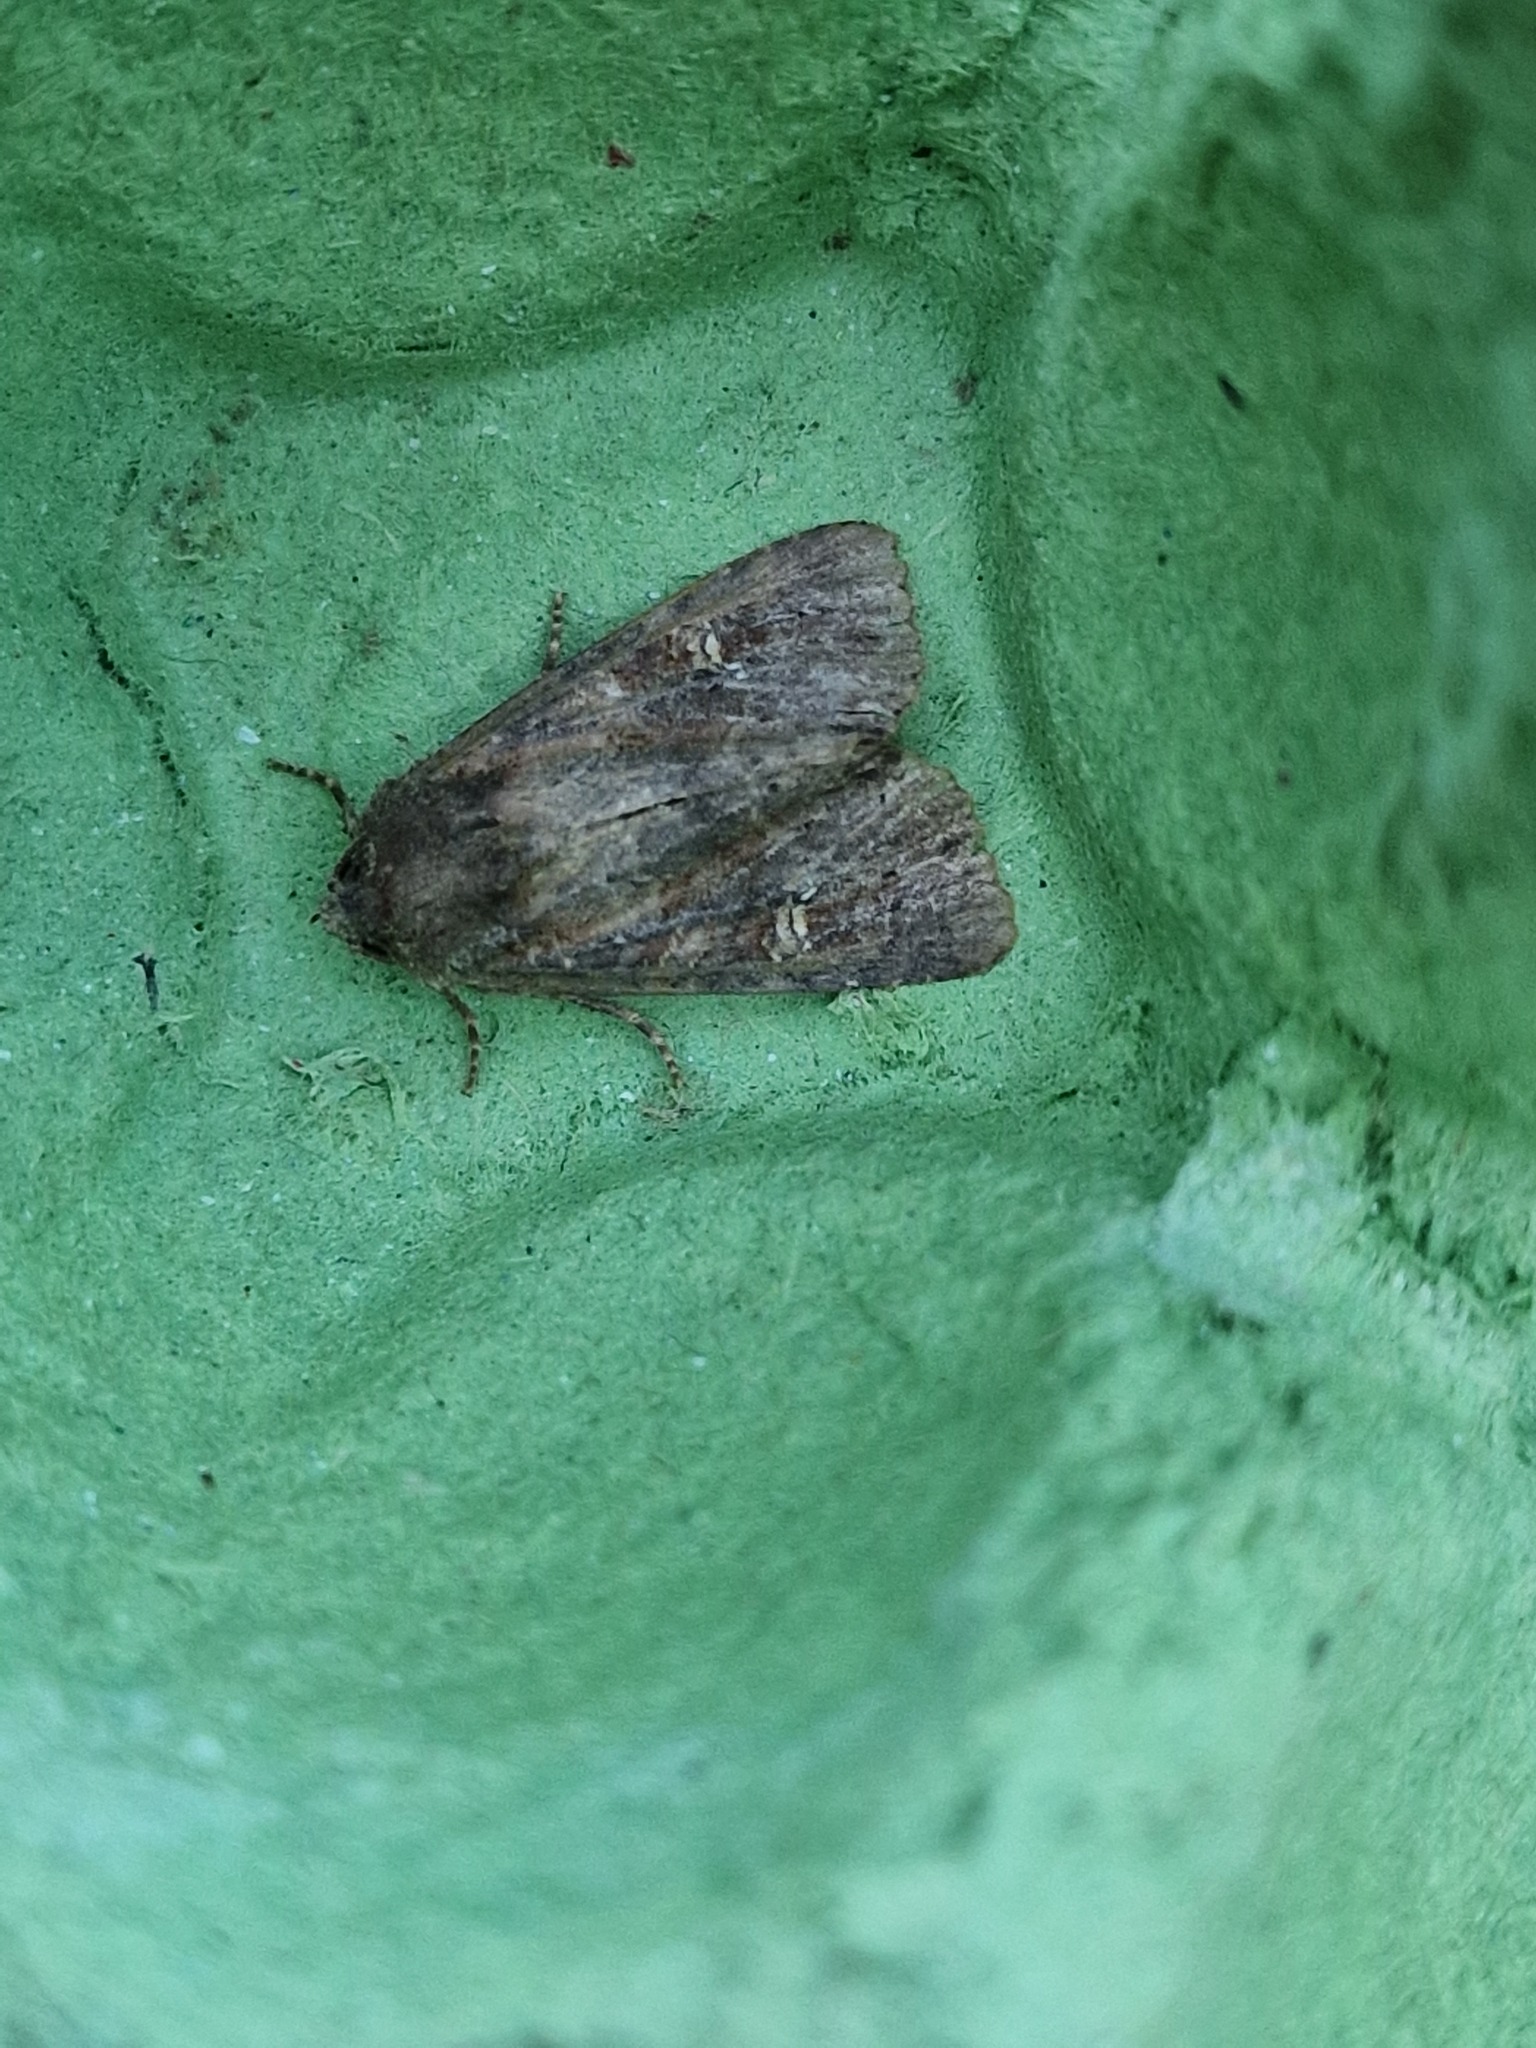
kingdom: Animalia
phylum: Arthropoda
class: Insecta
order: Lepidoptera
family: Noctuidae
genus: Mesapamea
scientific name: Mesapamea
